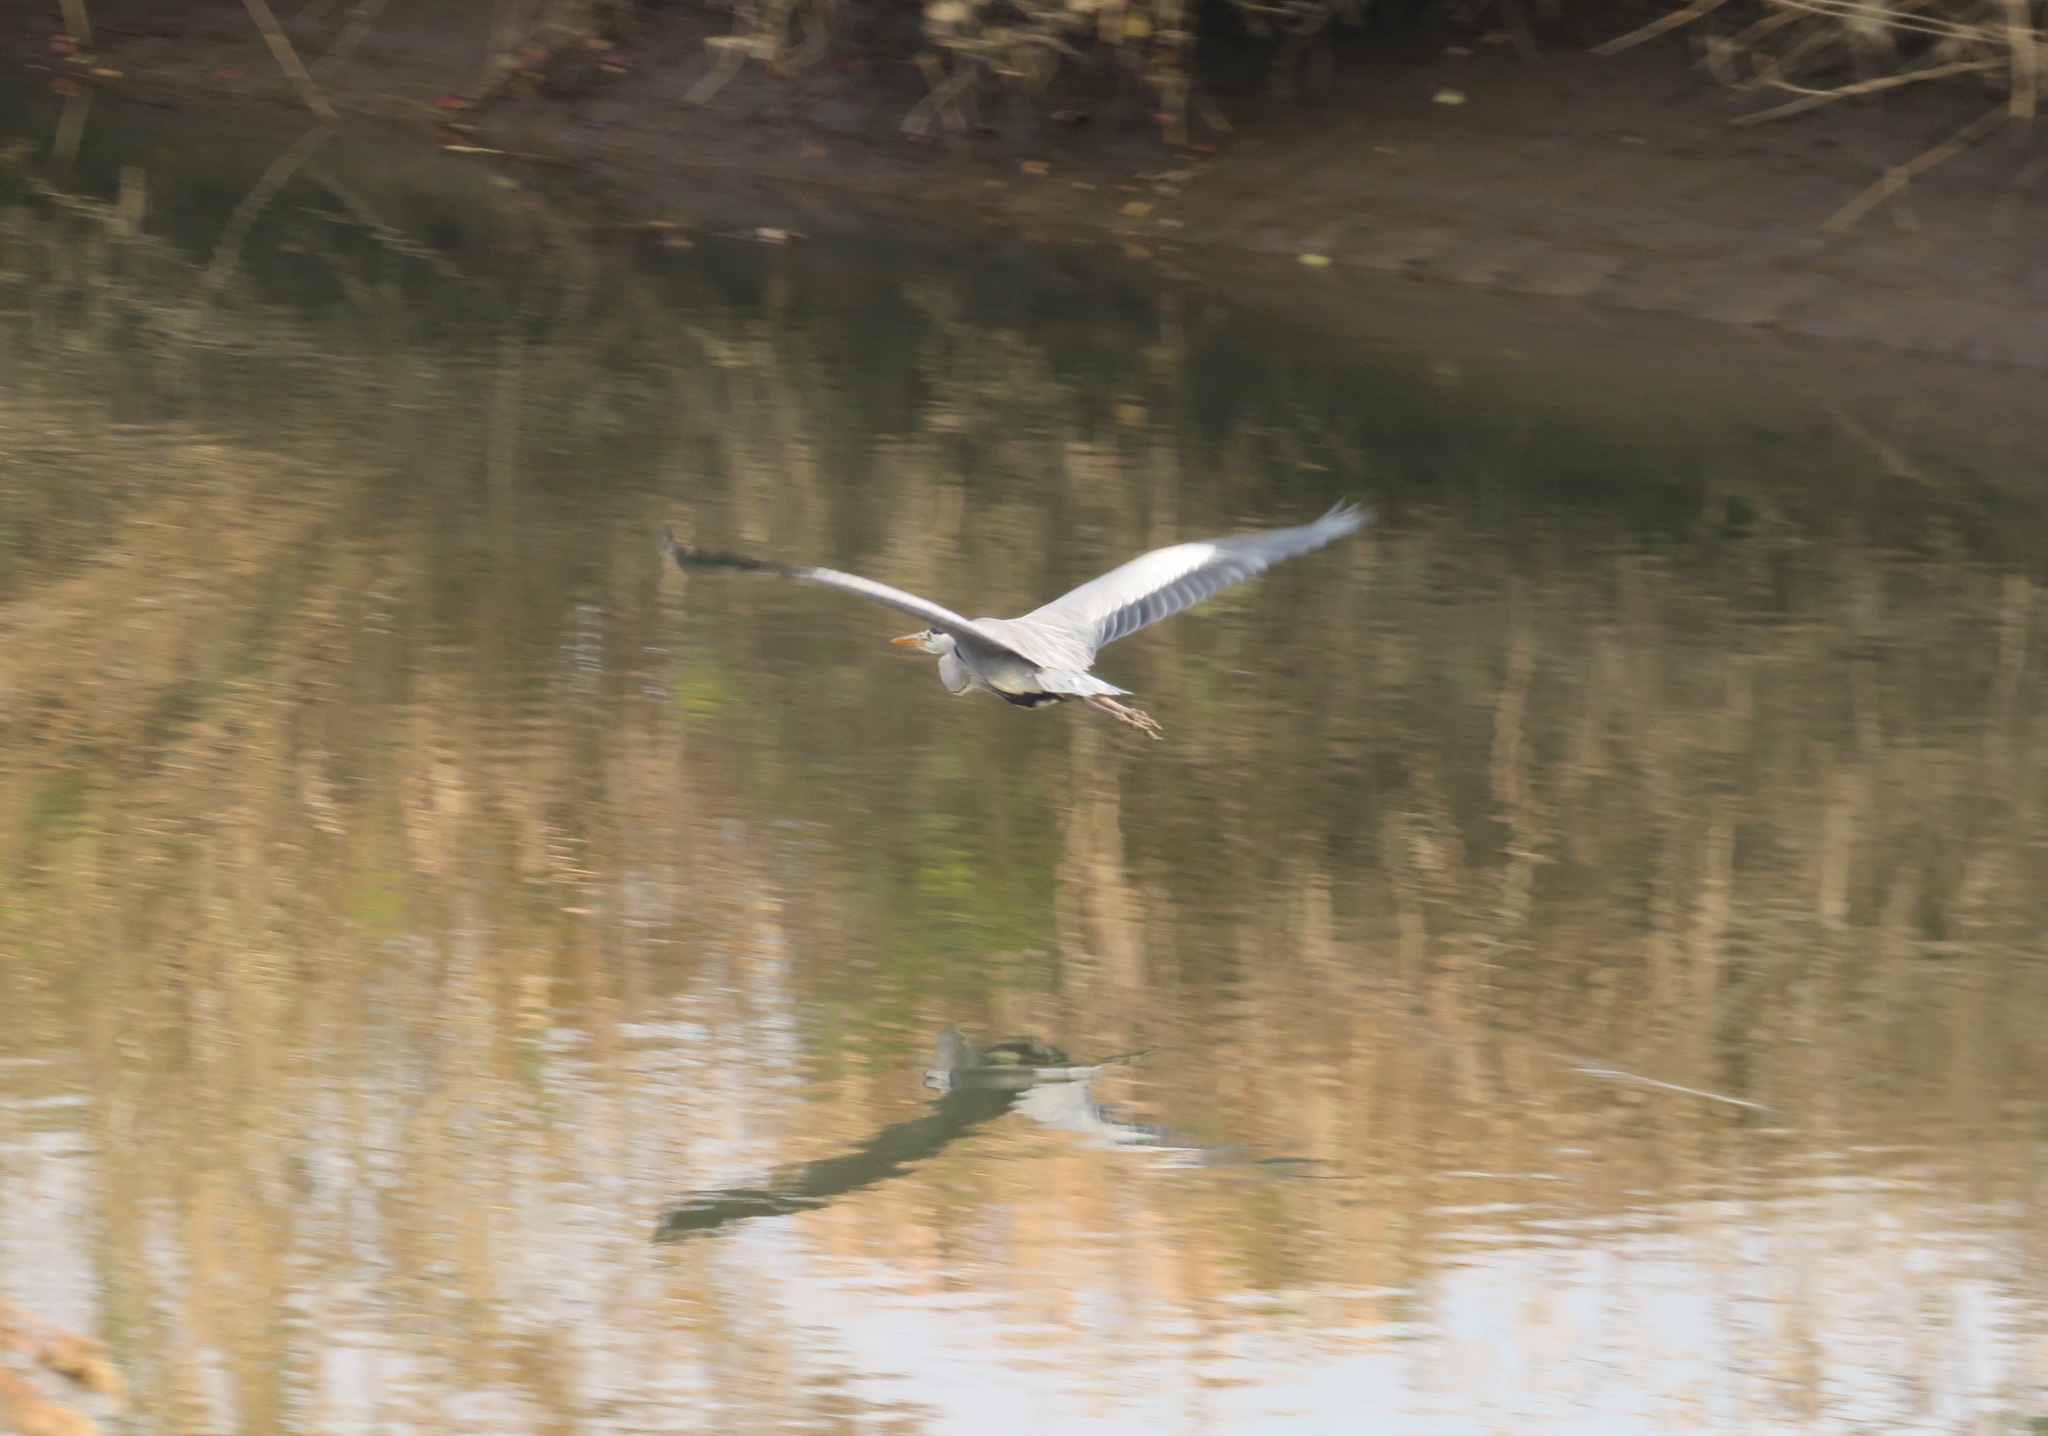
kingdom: Animalia
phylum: Chordata
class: Aves
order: Pelecaniformes
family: Ardeidae
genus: Ardea
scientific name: Ardea cinerea
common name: Grey heron
